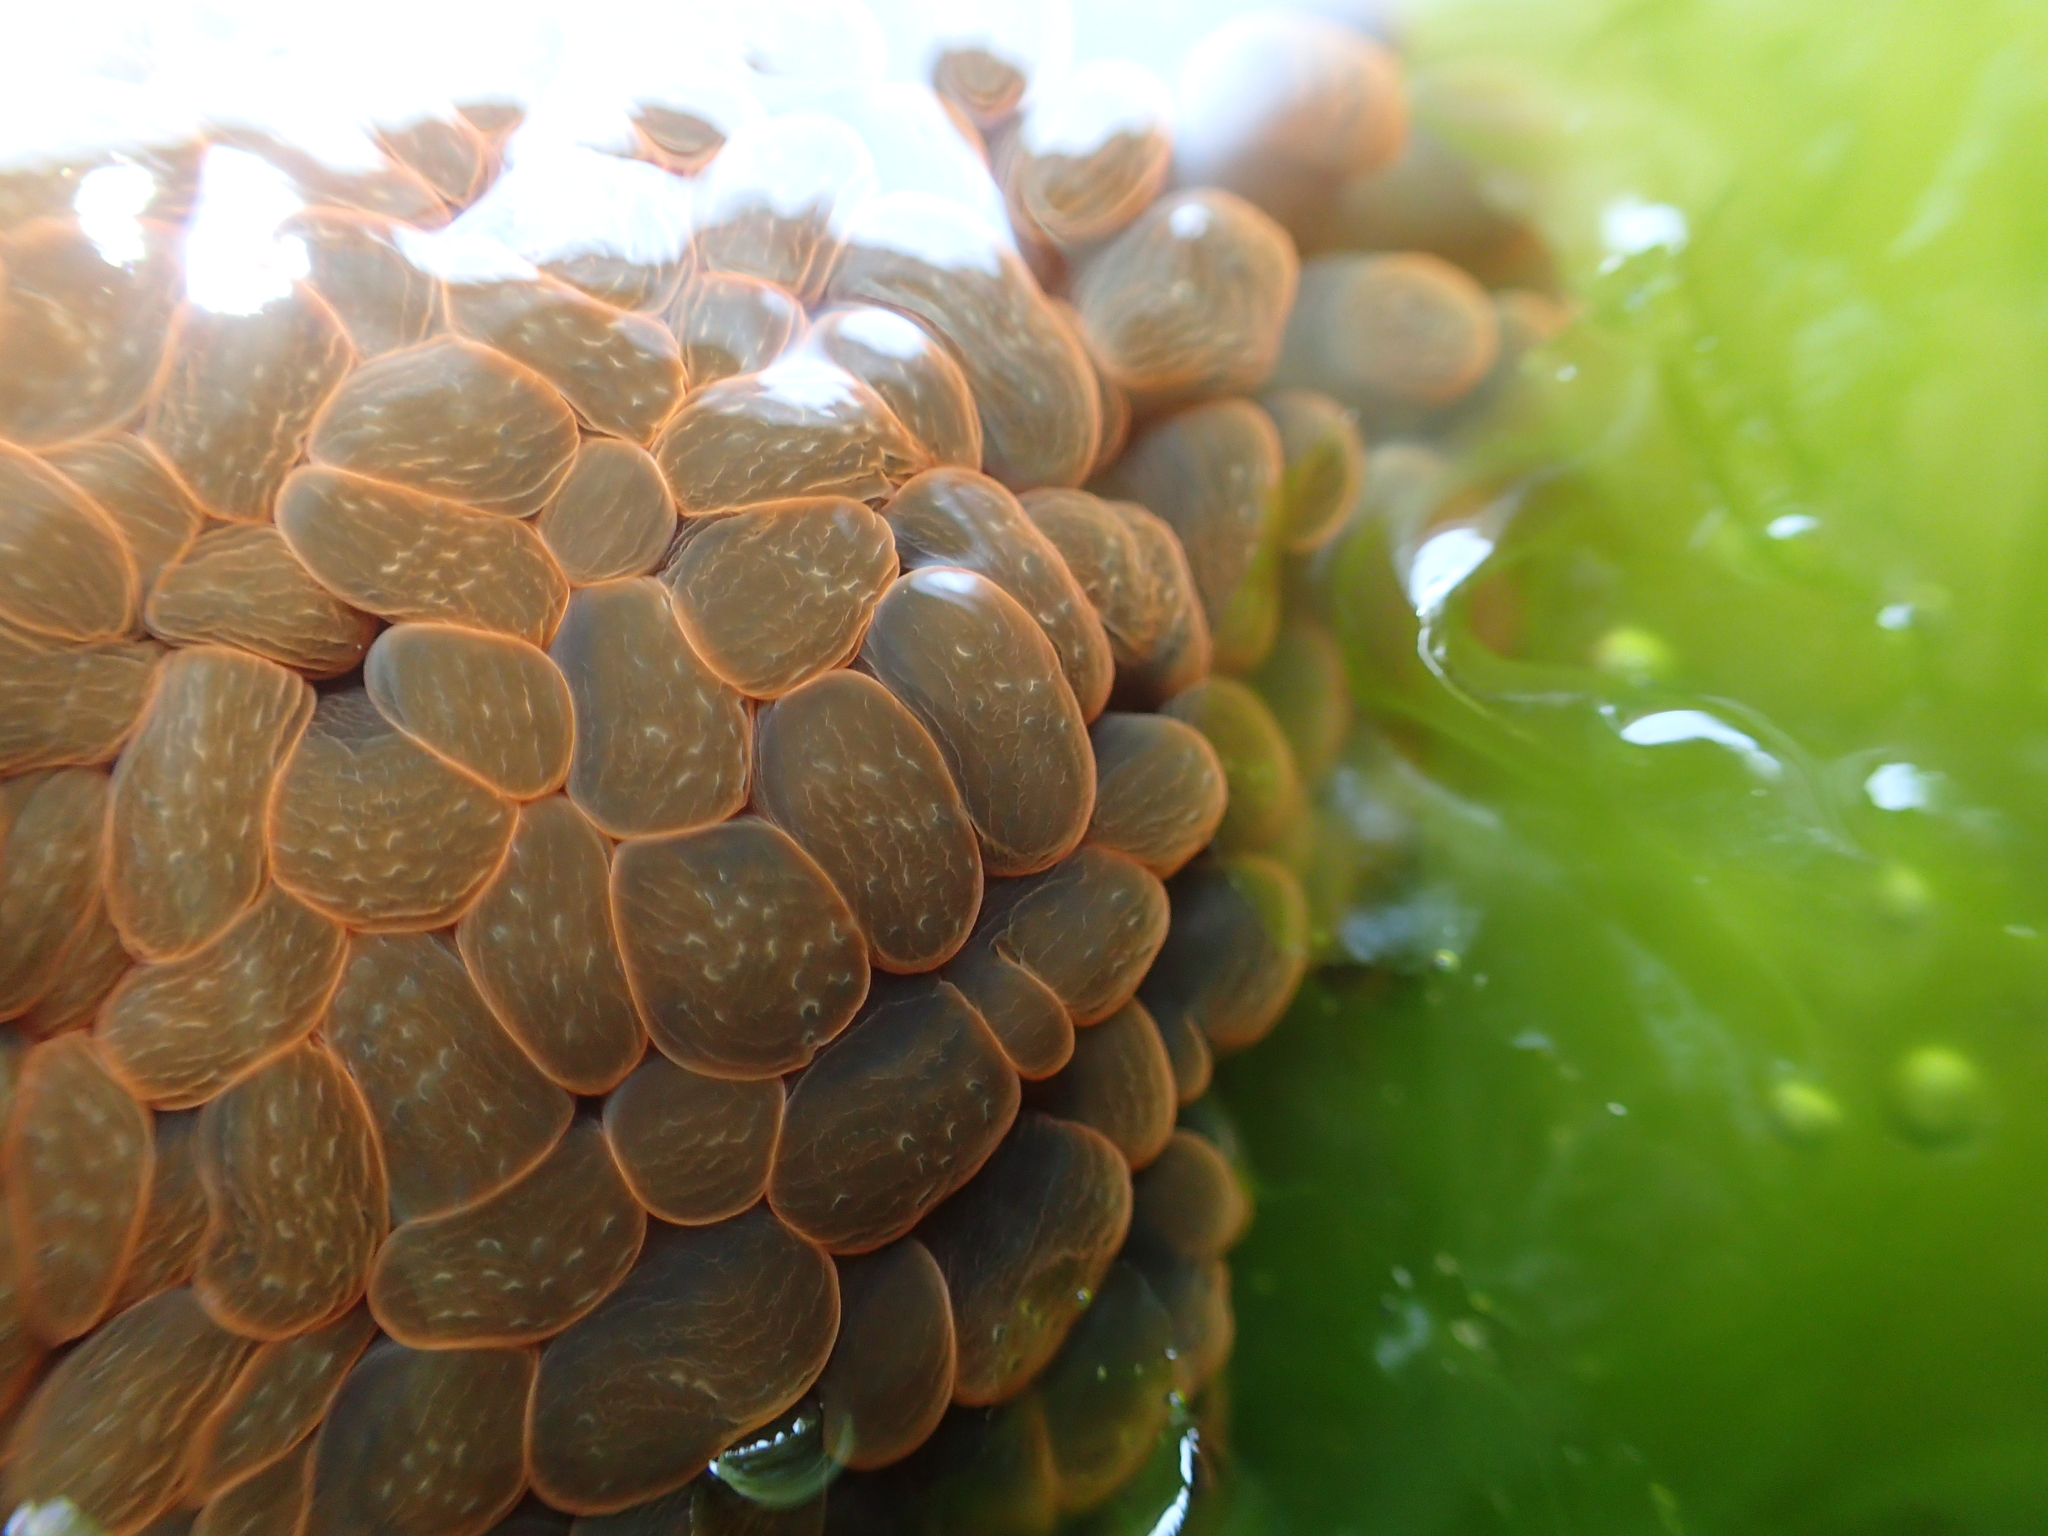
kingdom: Animalia
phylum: Cnidaria
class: Anthozoa
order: Actiniaria
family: Actiniidae
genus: Phlyctenactis
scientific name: Phlyctenactis tuberculosa
